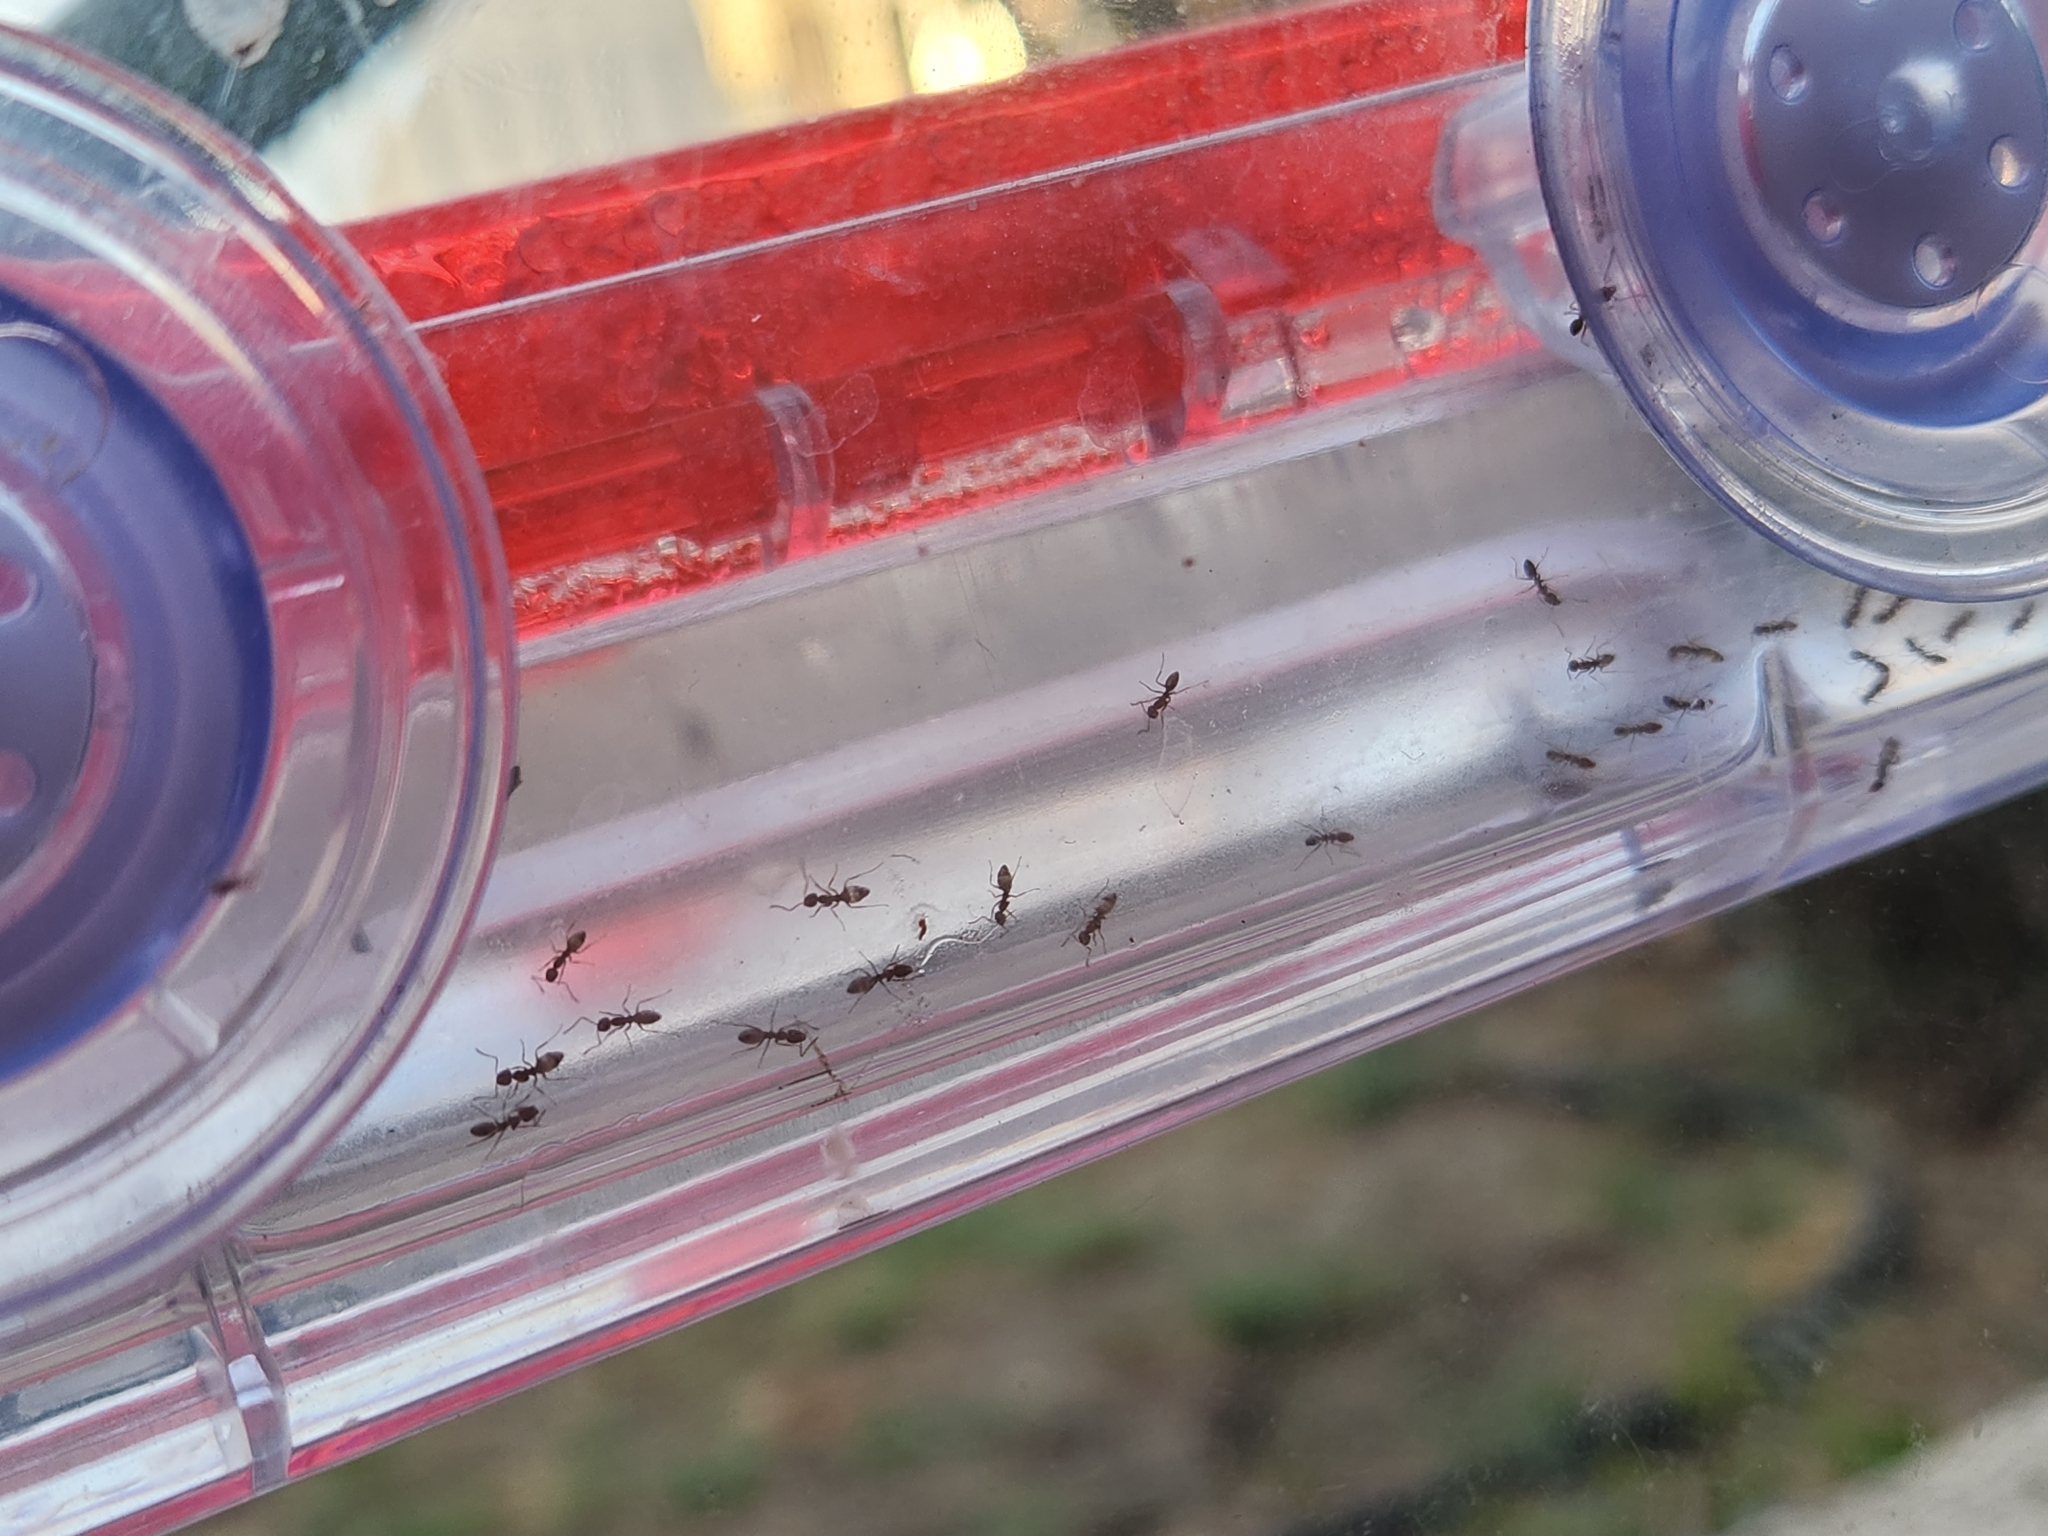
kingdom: Animalia
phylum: Arthropoda
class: Insecta
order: Hymenoptera
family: Formicidae
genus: Linepithema
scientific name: Linepithema humile
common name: Argentine ant
